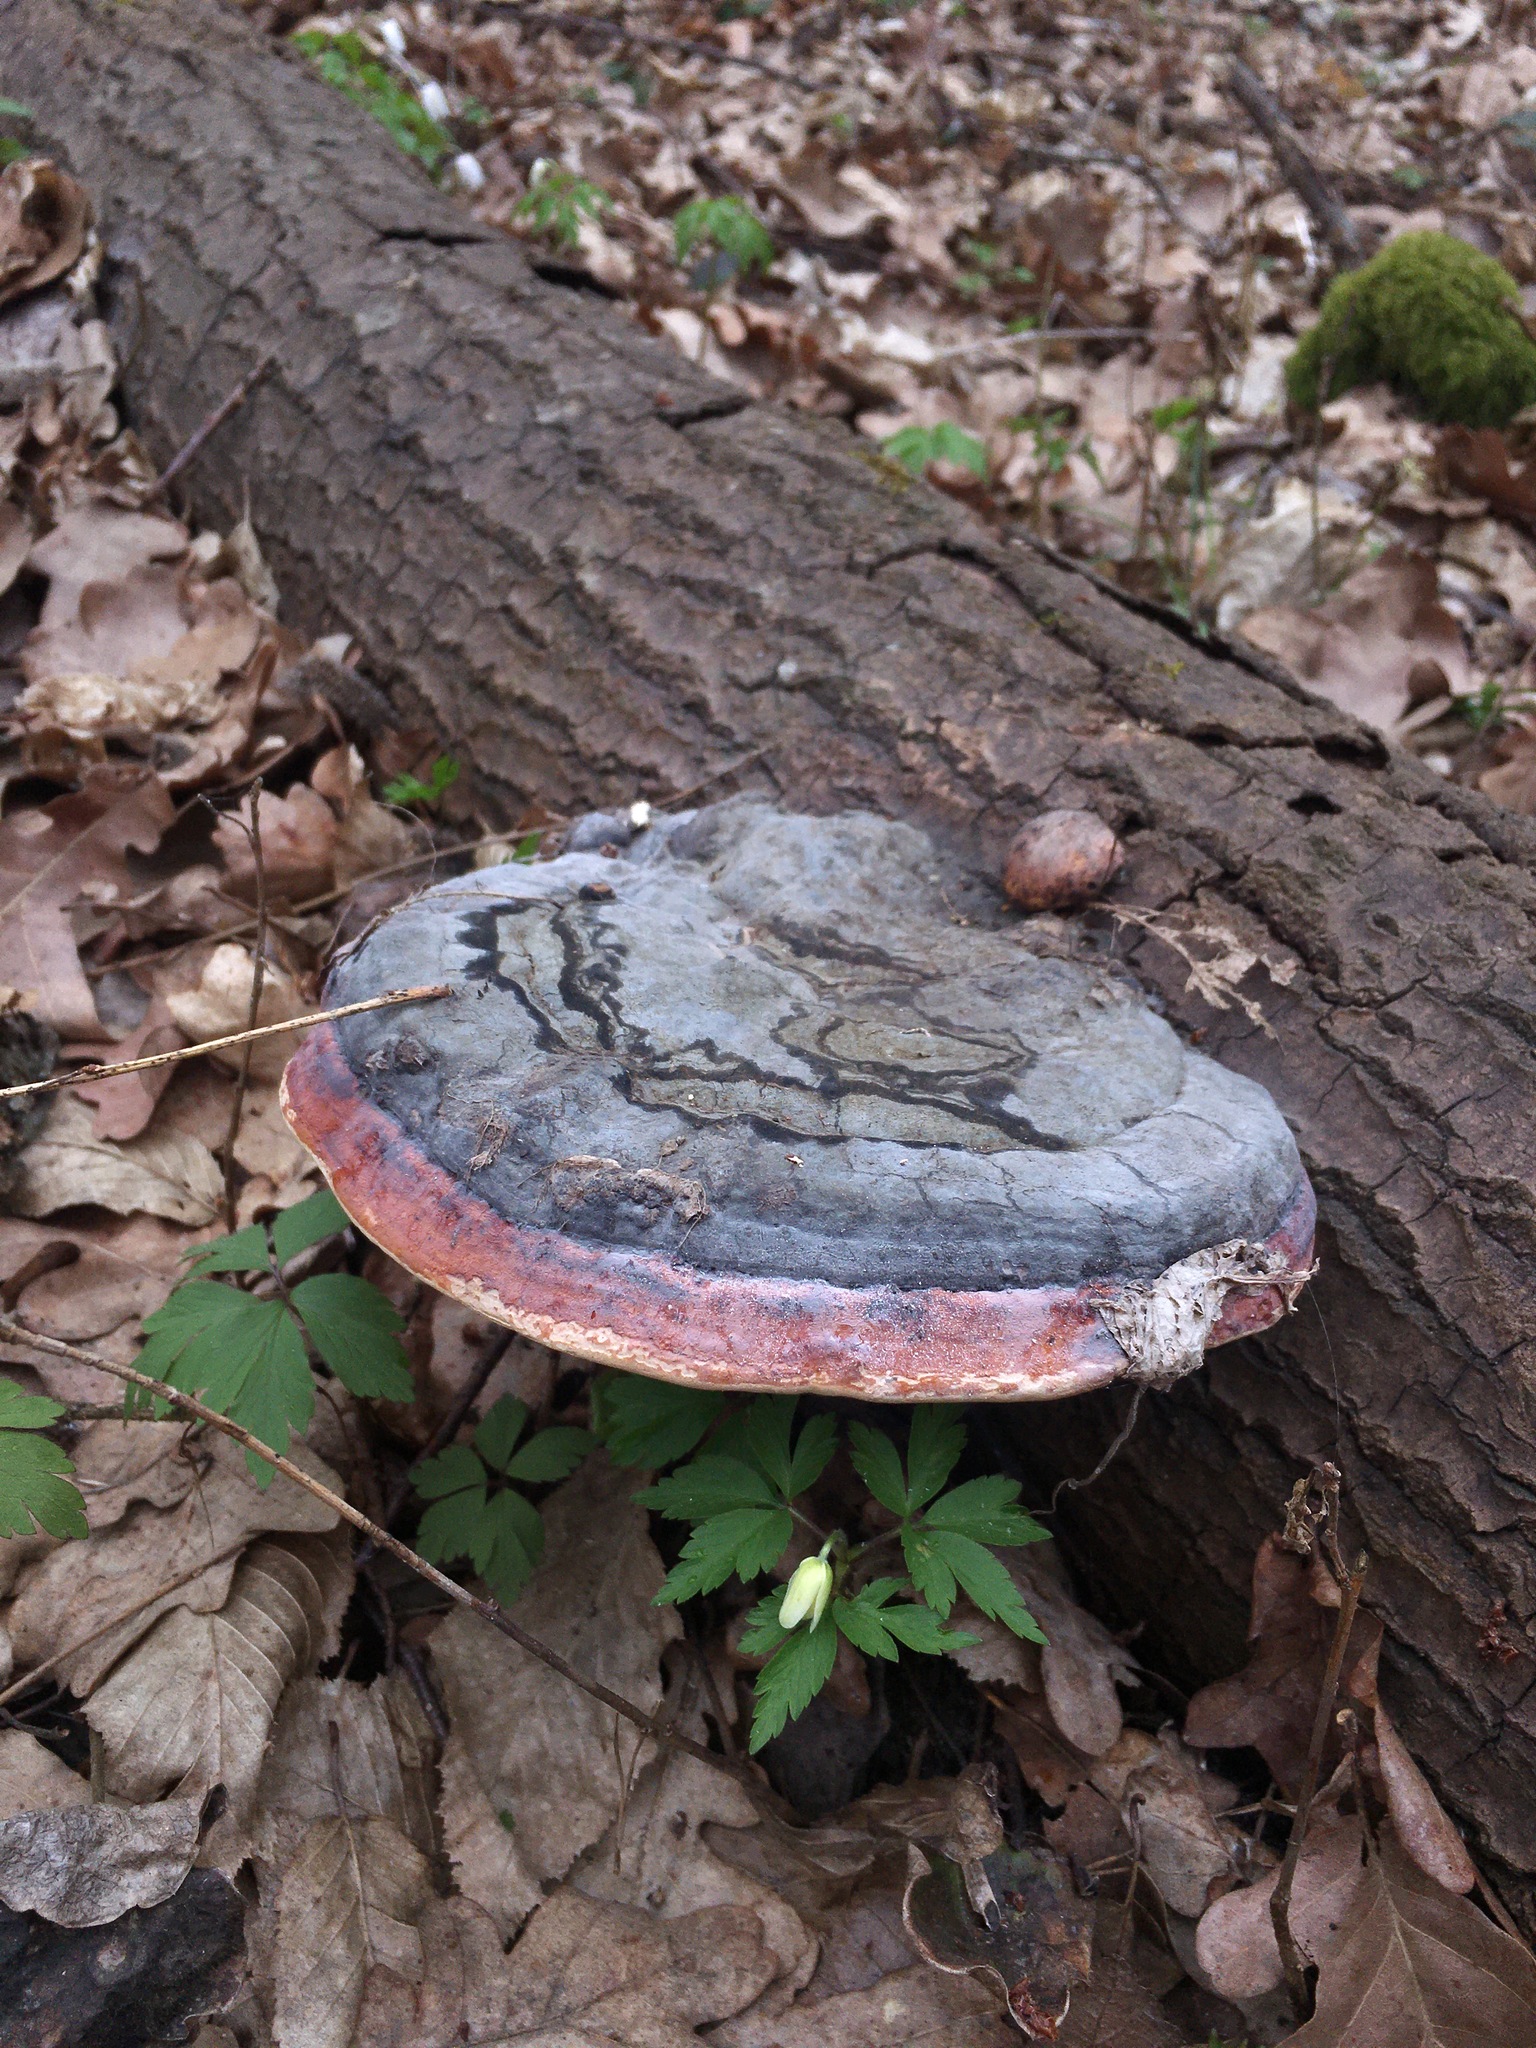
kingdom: Fungi
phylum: Basidiomycota
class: Agaricomycetes
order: Polyporales
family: Fomitopsidaceae
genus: Fomitopsis
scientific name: Fomitopsis pinicola
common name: Red-belted bracket
